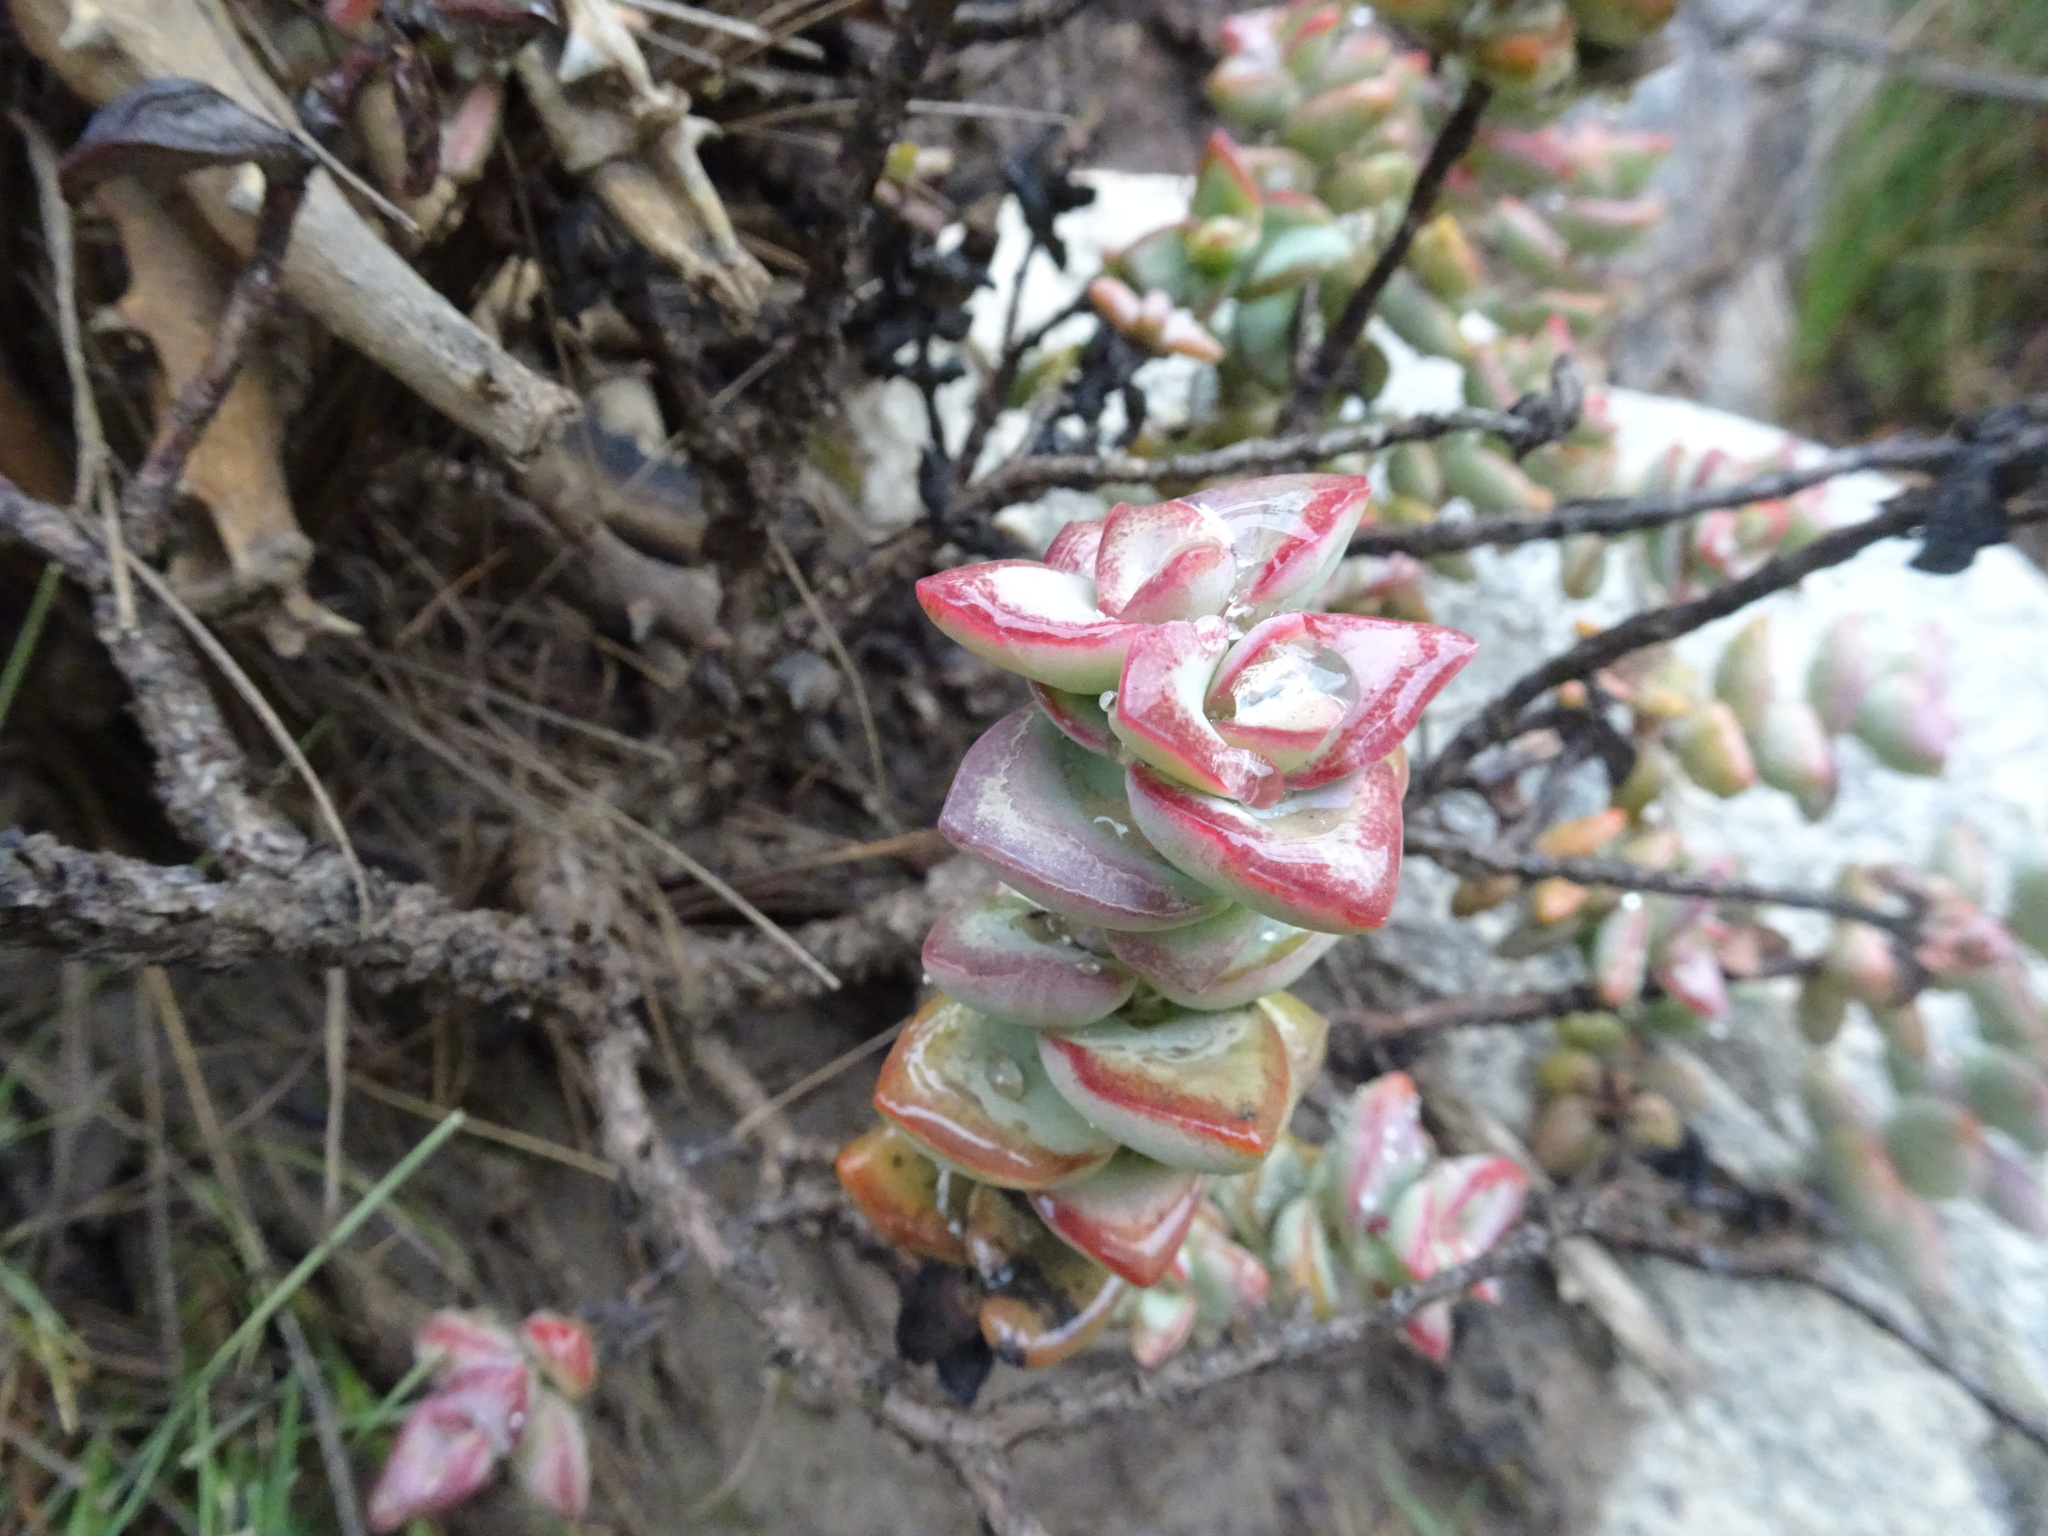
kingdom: Plantae
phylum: Tracheophyta
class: Magnoliopsida
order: Saxifragales
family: Crassulaceae
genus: Crassula
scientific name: Crassula rupestris
